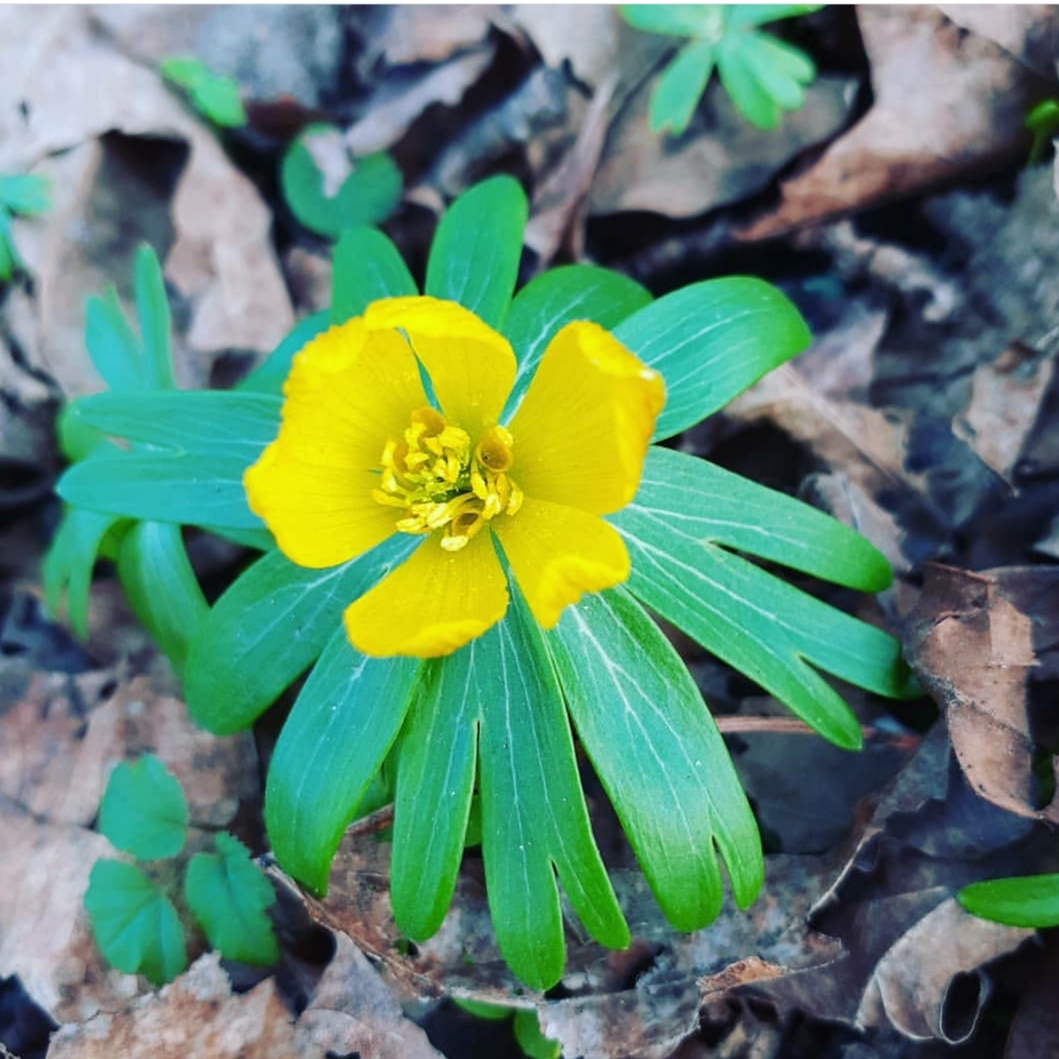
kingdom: Plantae
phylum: Tracheophyta
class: Magnoliopsida
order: Ranunculales
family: Ranunculaceae
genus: Eranthis
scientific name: Eranthis hyemalis
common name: Winter aconite
